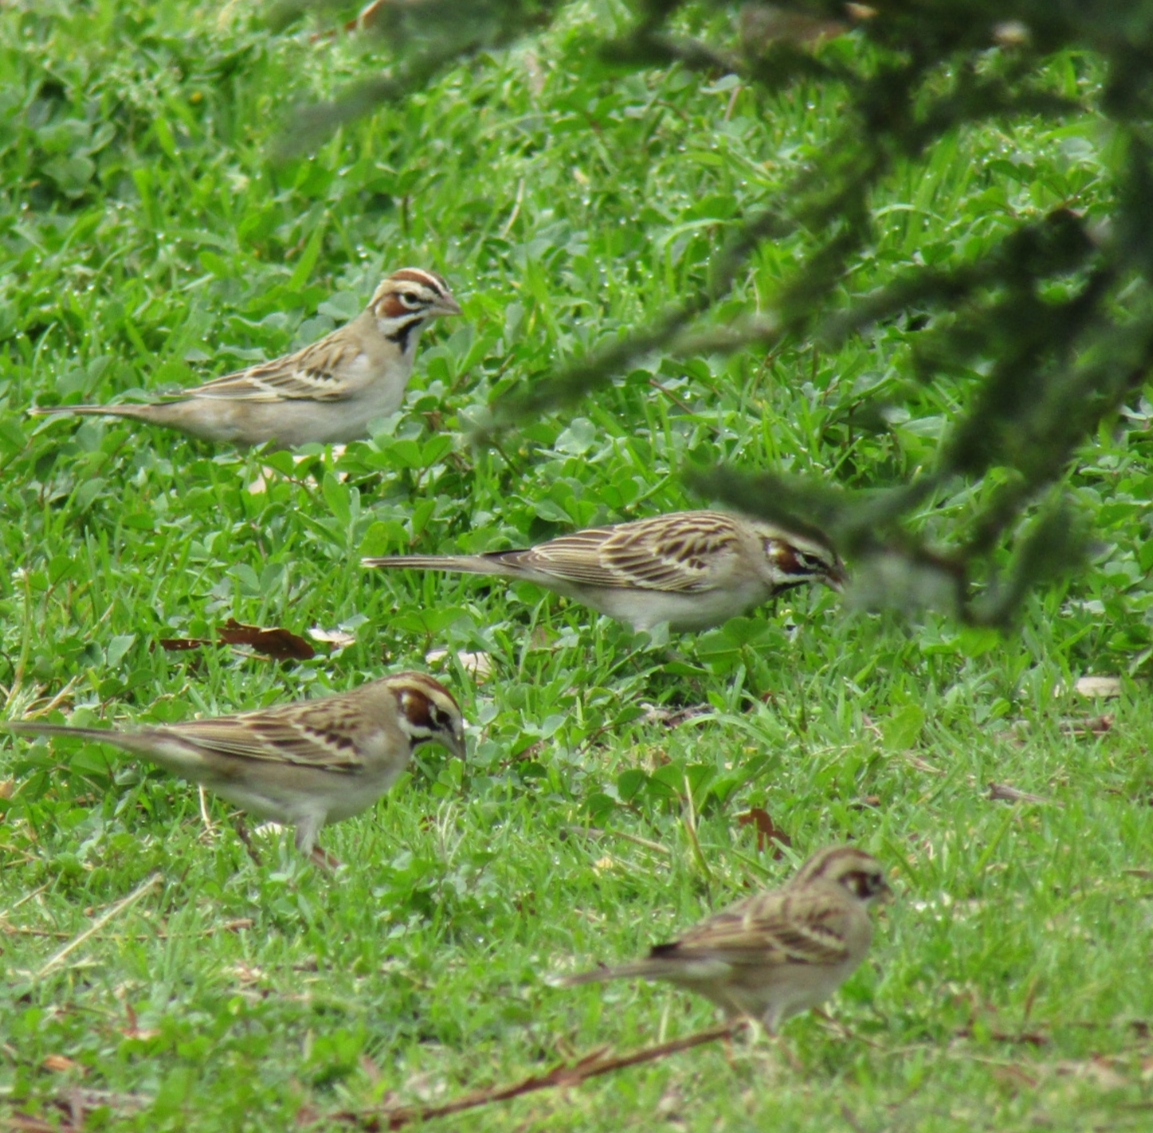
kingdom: Animalia
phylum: Chordata
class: Aves
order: Passeriformes
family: Passerellidae
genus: Chondestes
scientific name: Chondestes grammacus
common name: Lark sparrow
